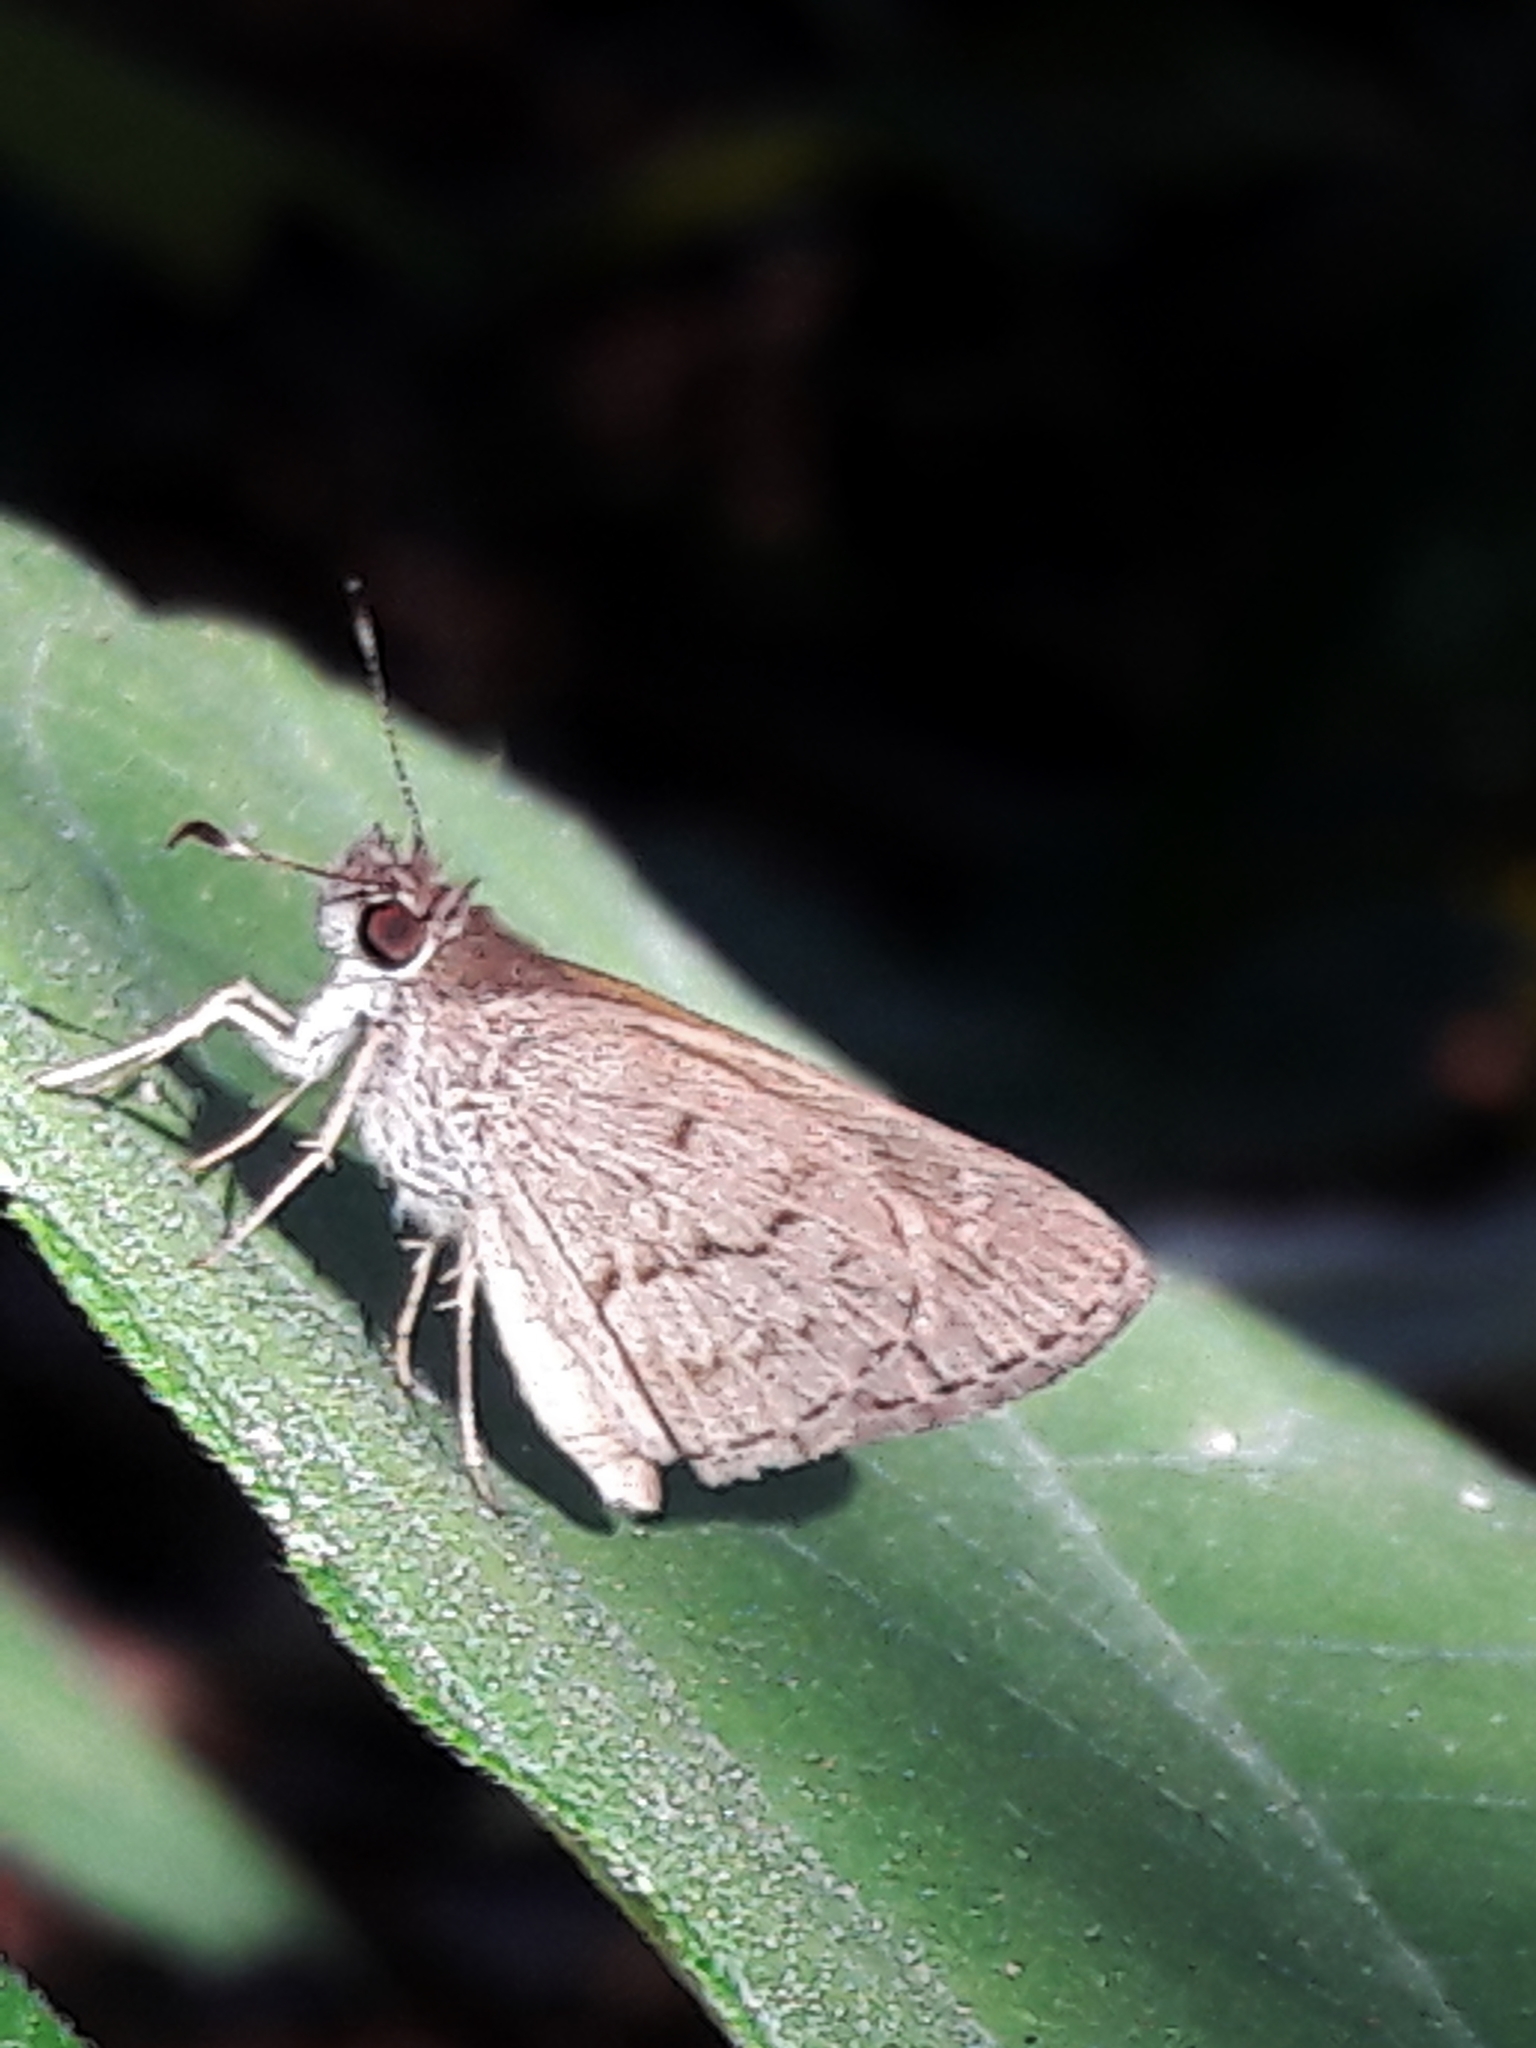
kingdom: Animalia
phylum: Arthropoda
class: Insecta
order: Lepidoptera
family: Hesperiidae
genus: Cymaenes
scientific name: Cymaenes gisca
